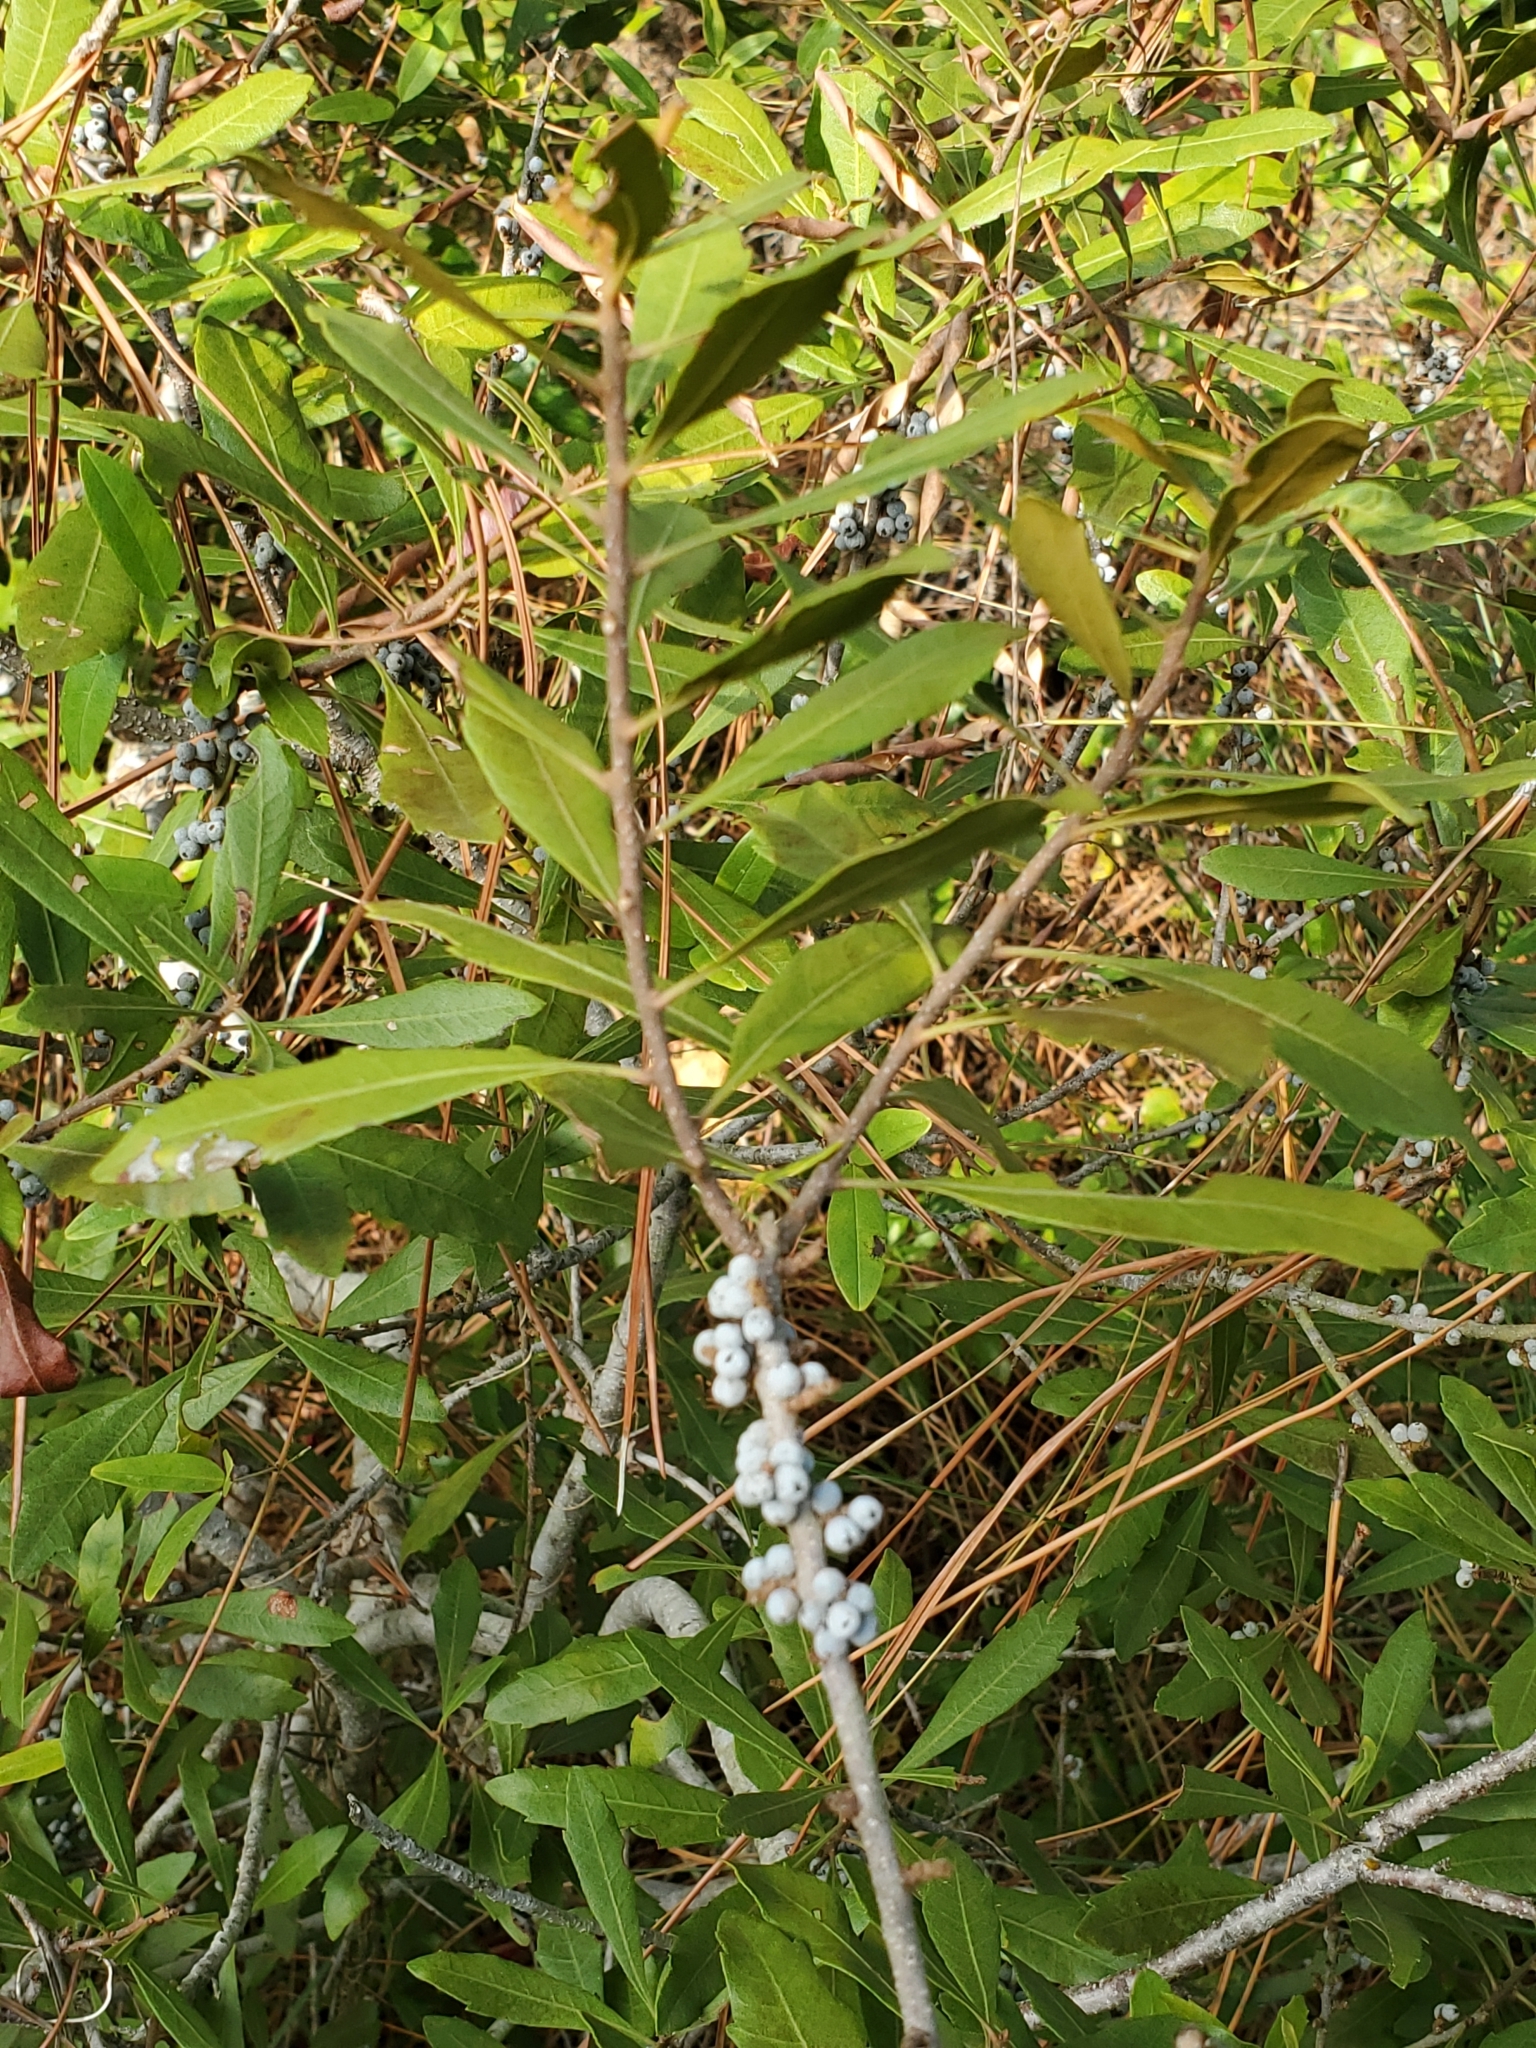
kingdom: Plantae
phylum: Tracheophyta
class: Magnoliopsida
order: Fagales
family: Myricaceae
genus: Morella
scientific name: Morella cerifera
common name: Wax myrtle
